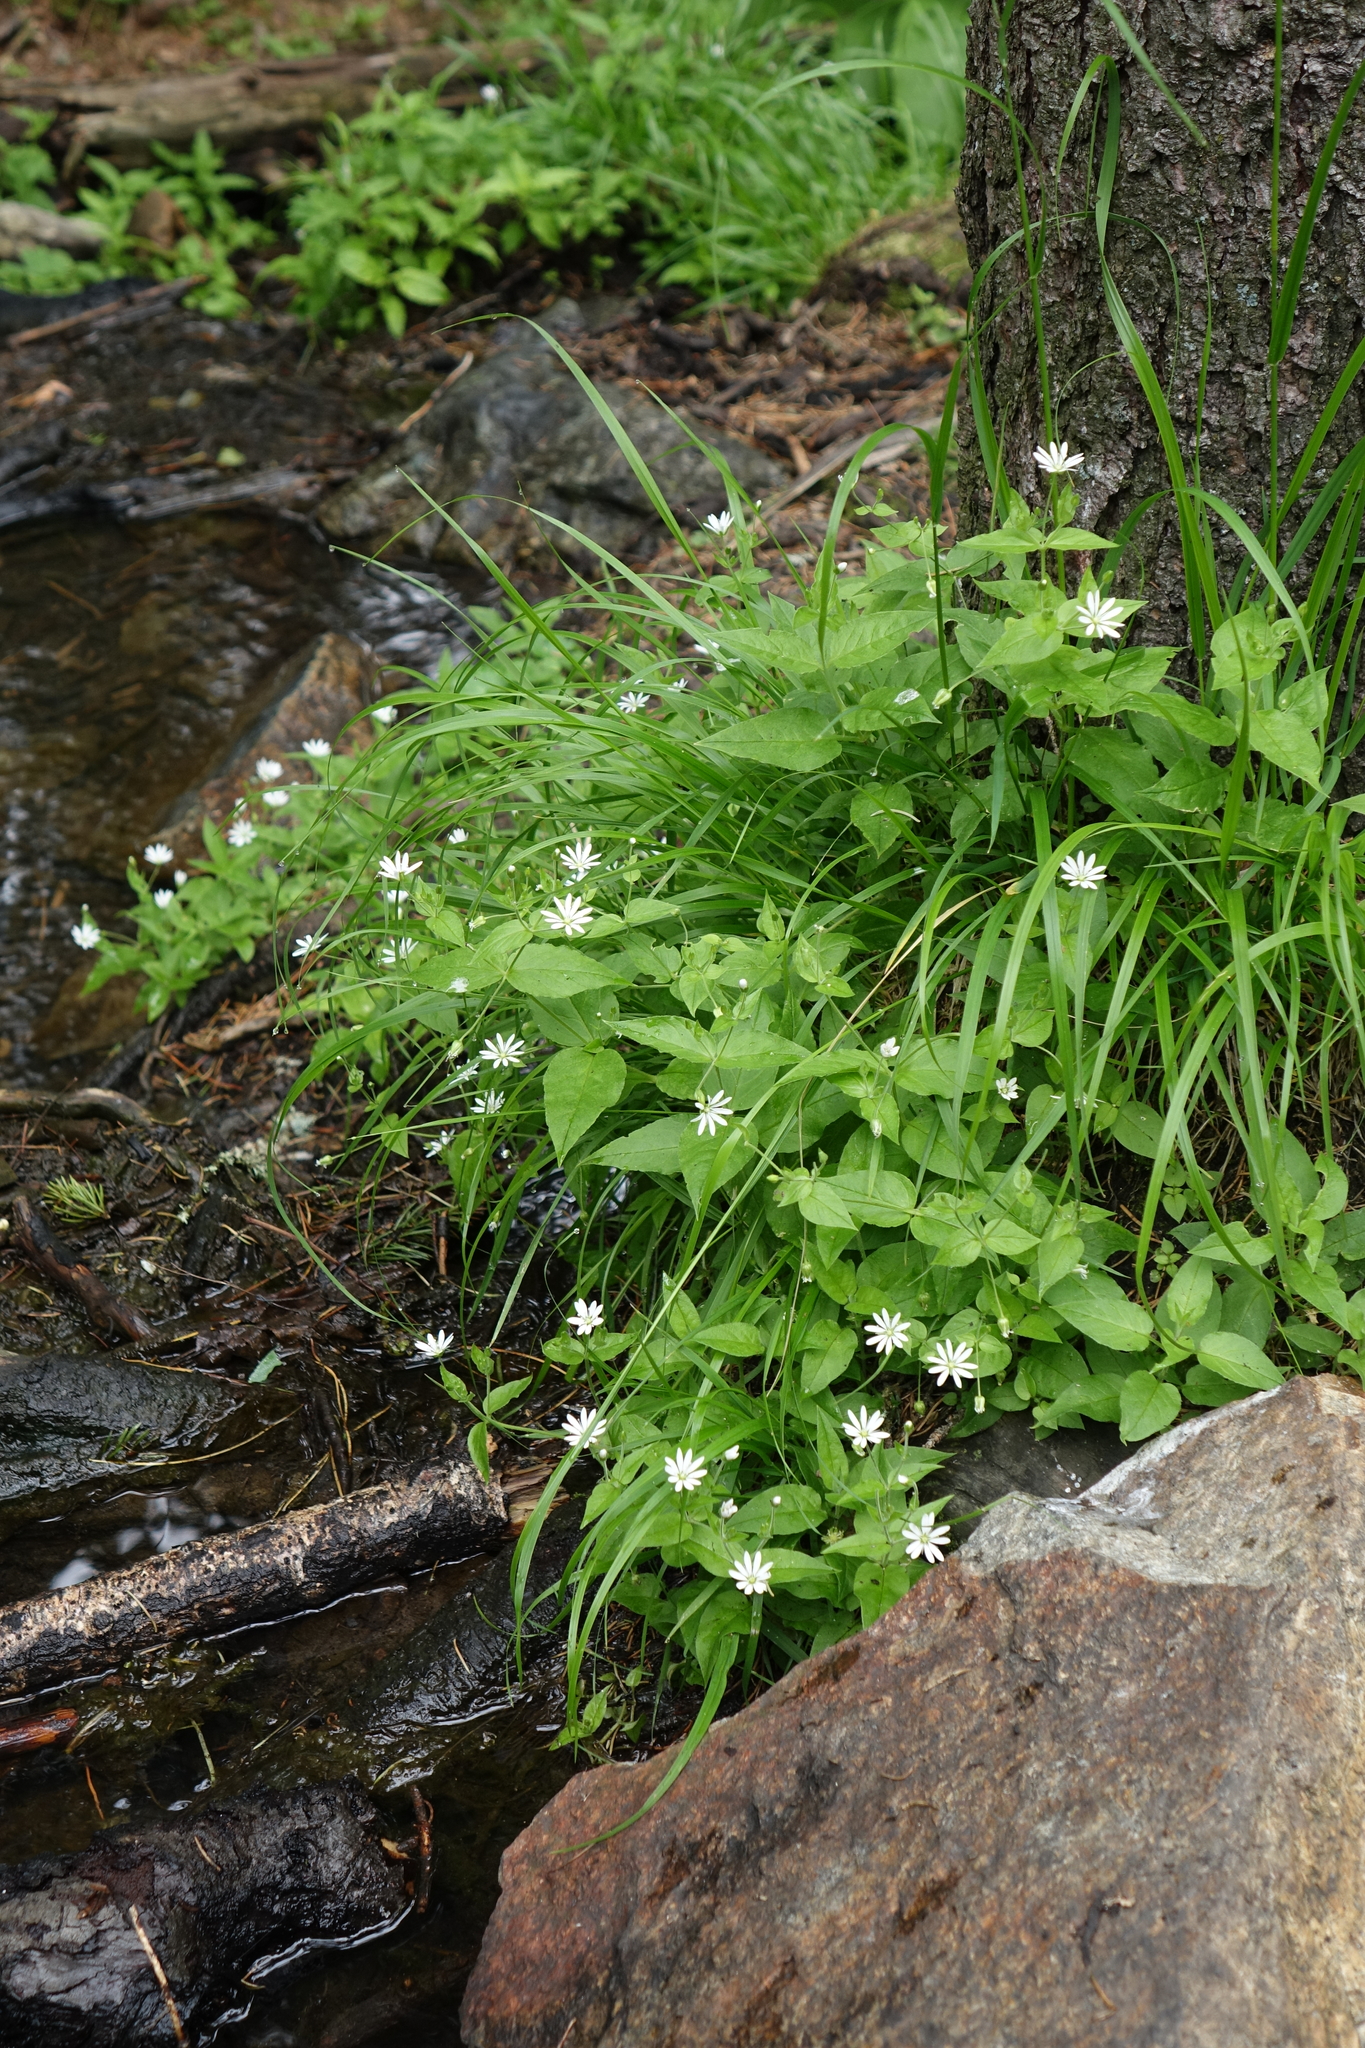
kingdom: Plantae
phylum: Tracheophyta
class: Magnoliopsida
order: Caryophyllales
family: Caryophyllaceae
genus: Stellaria
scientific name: Stellaria bungeana
